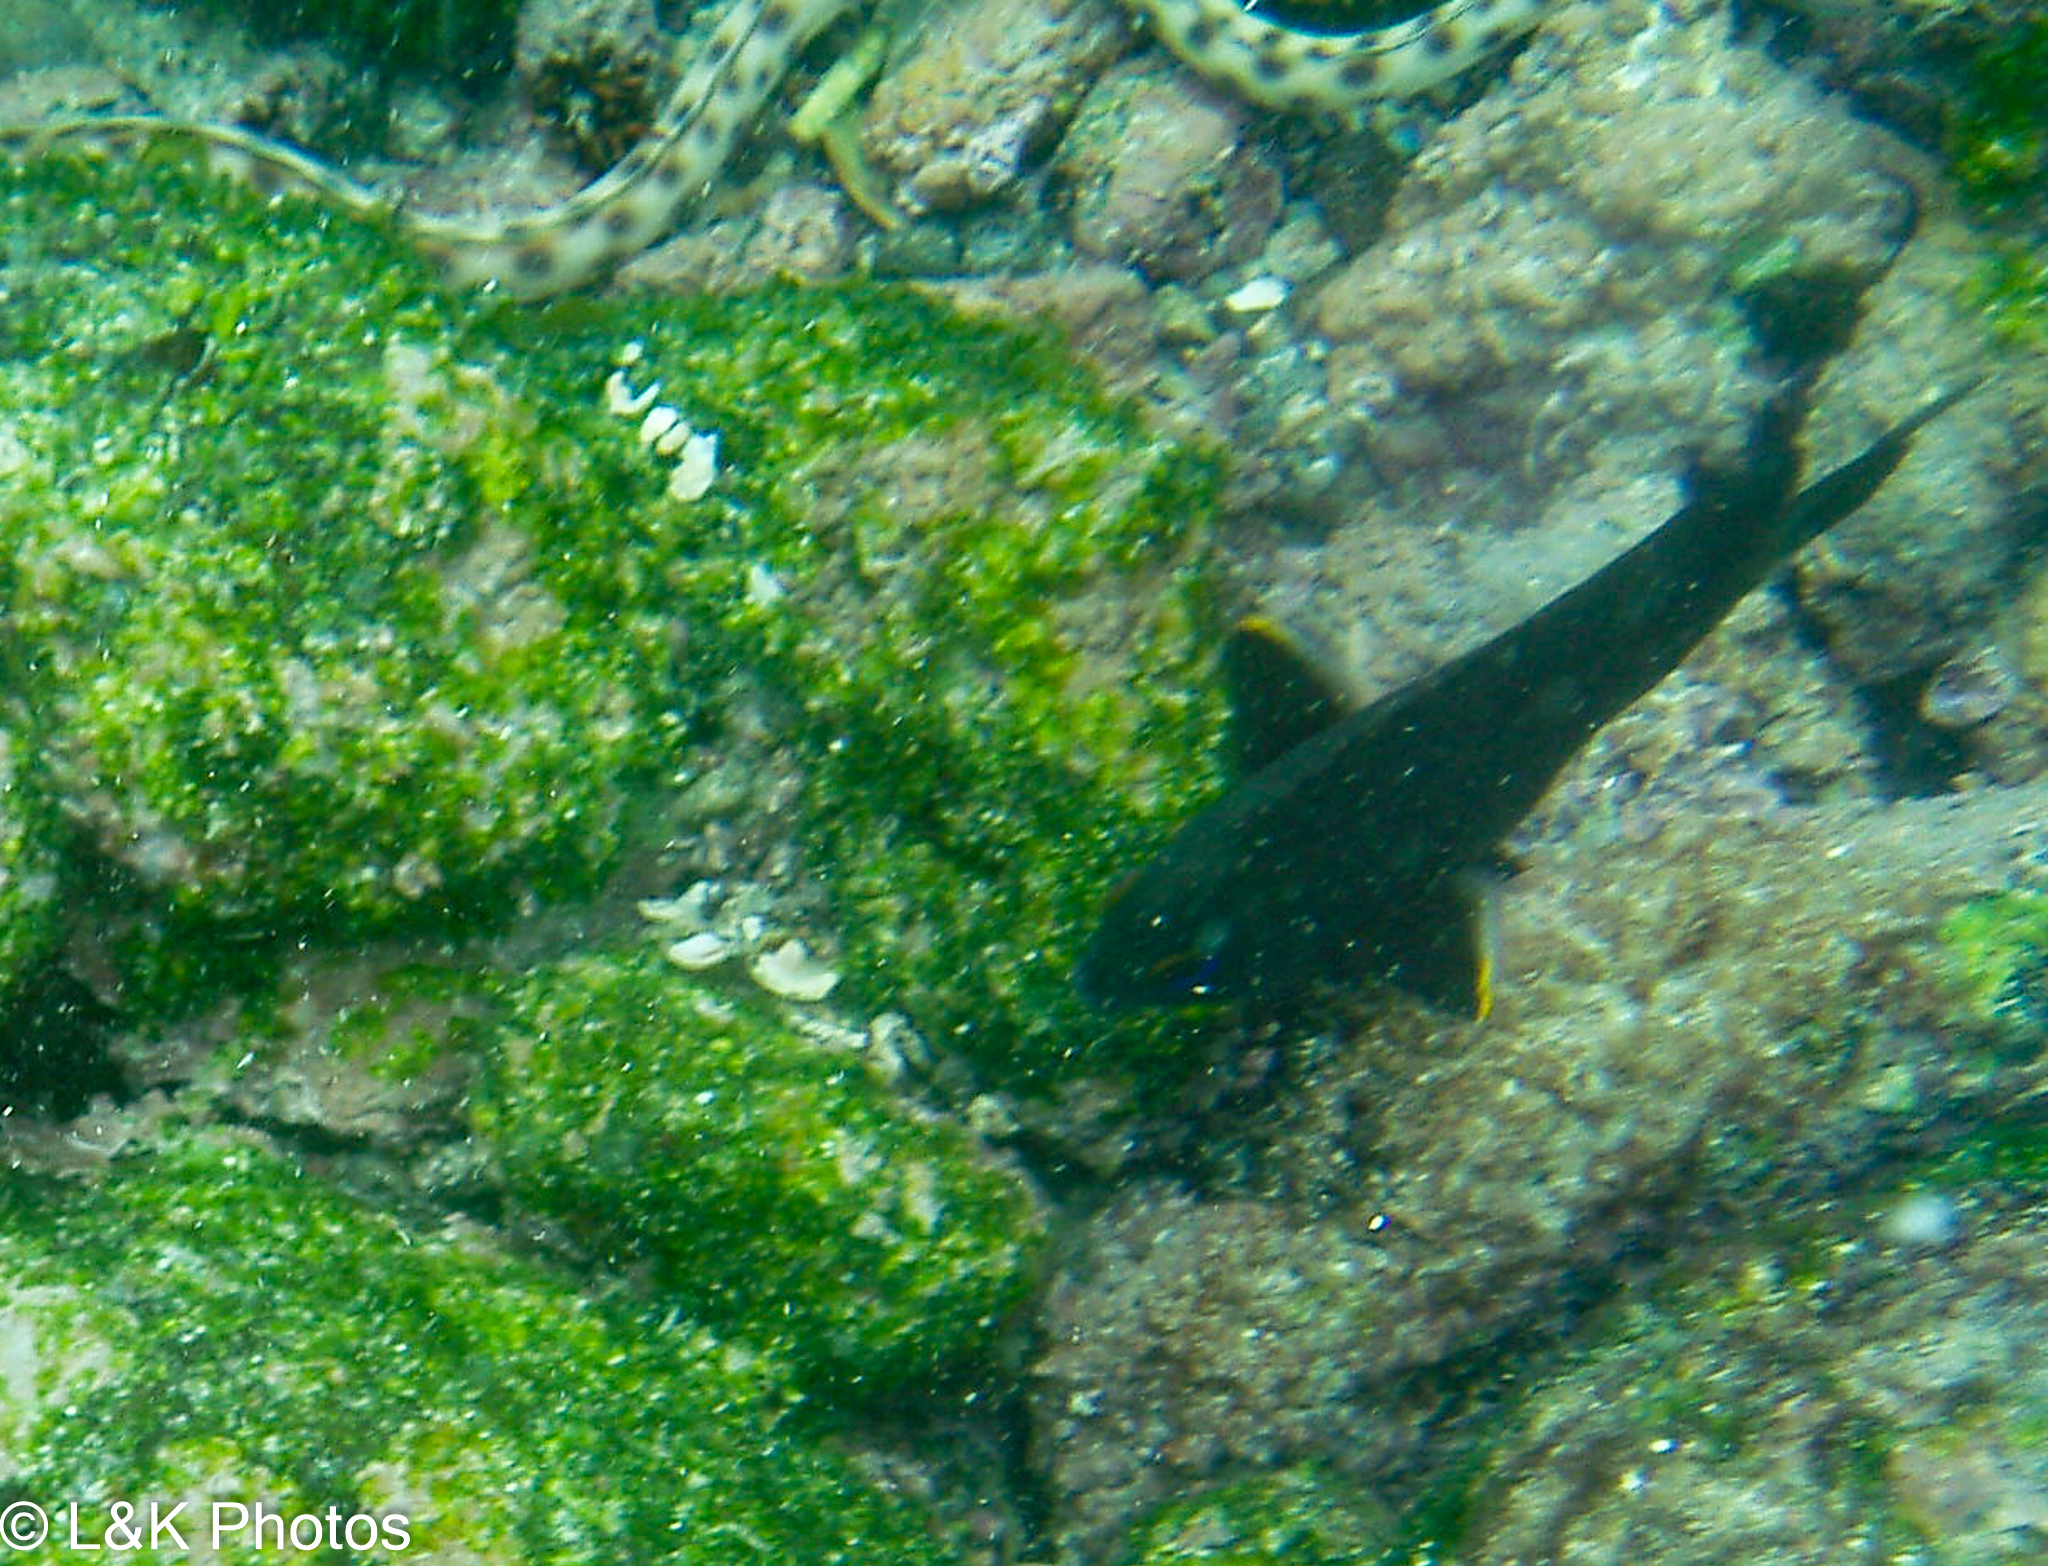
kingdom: Animalia
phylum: Chordata
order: Perciformes
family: Pomacentridae
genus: Stegastes
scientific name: Stegastes beebei
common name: Galapagos ringtail damselfish
